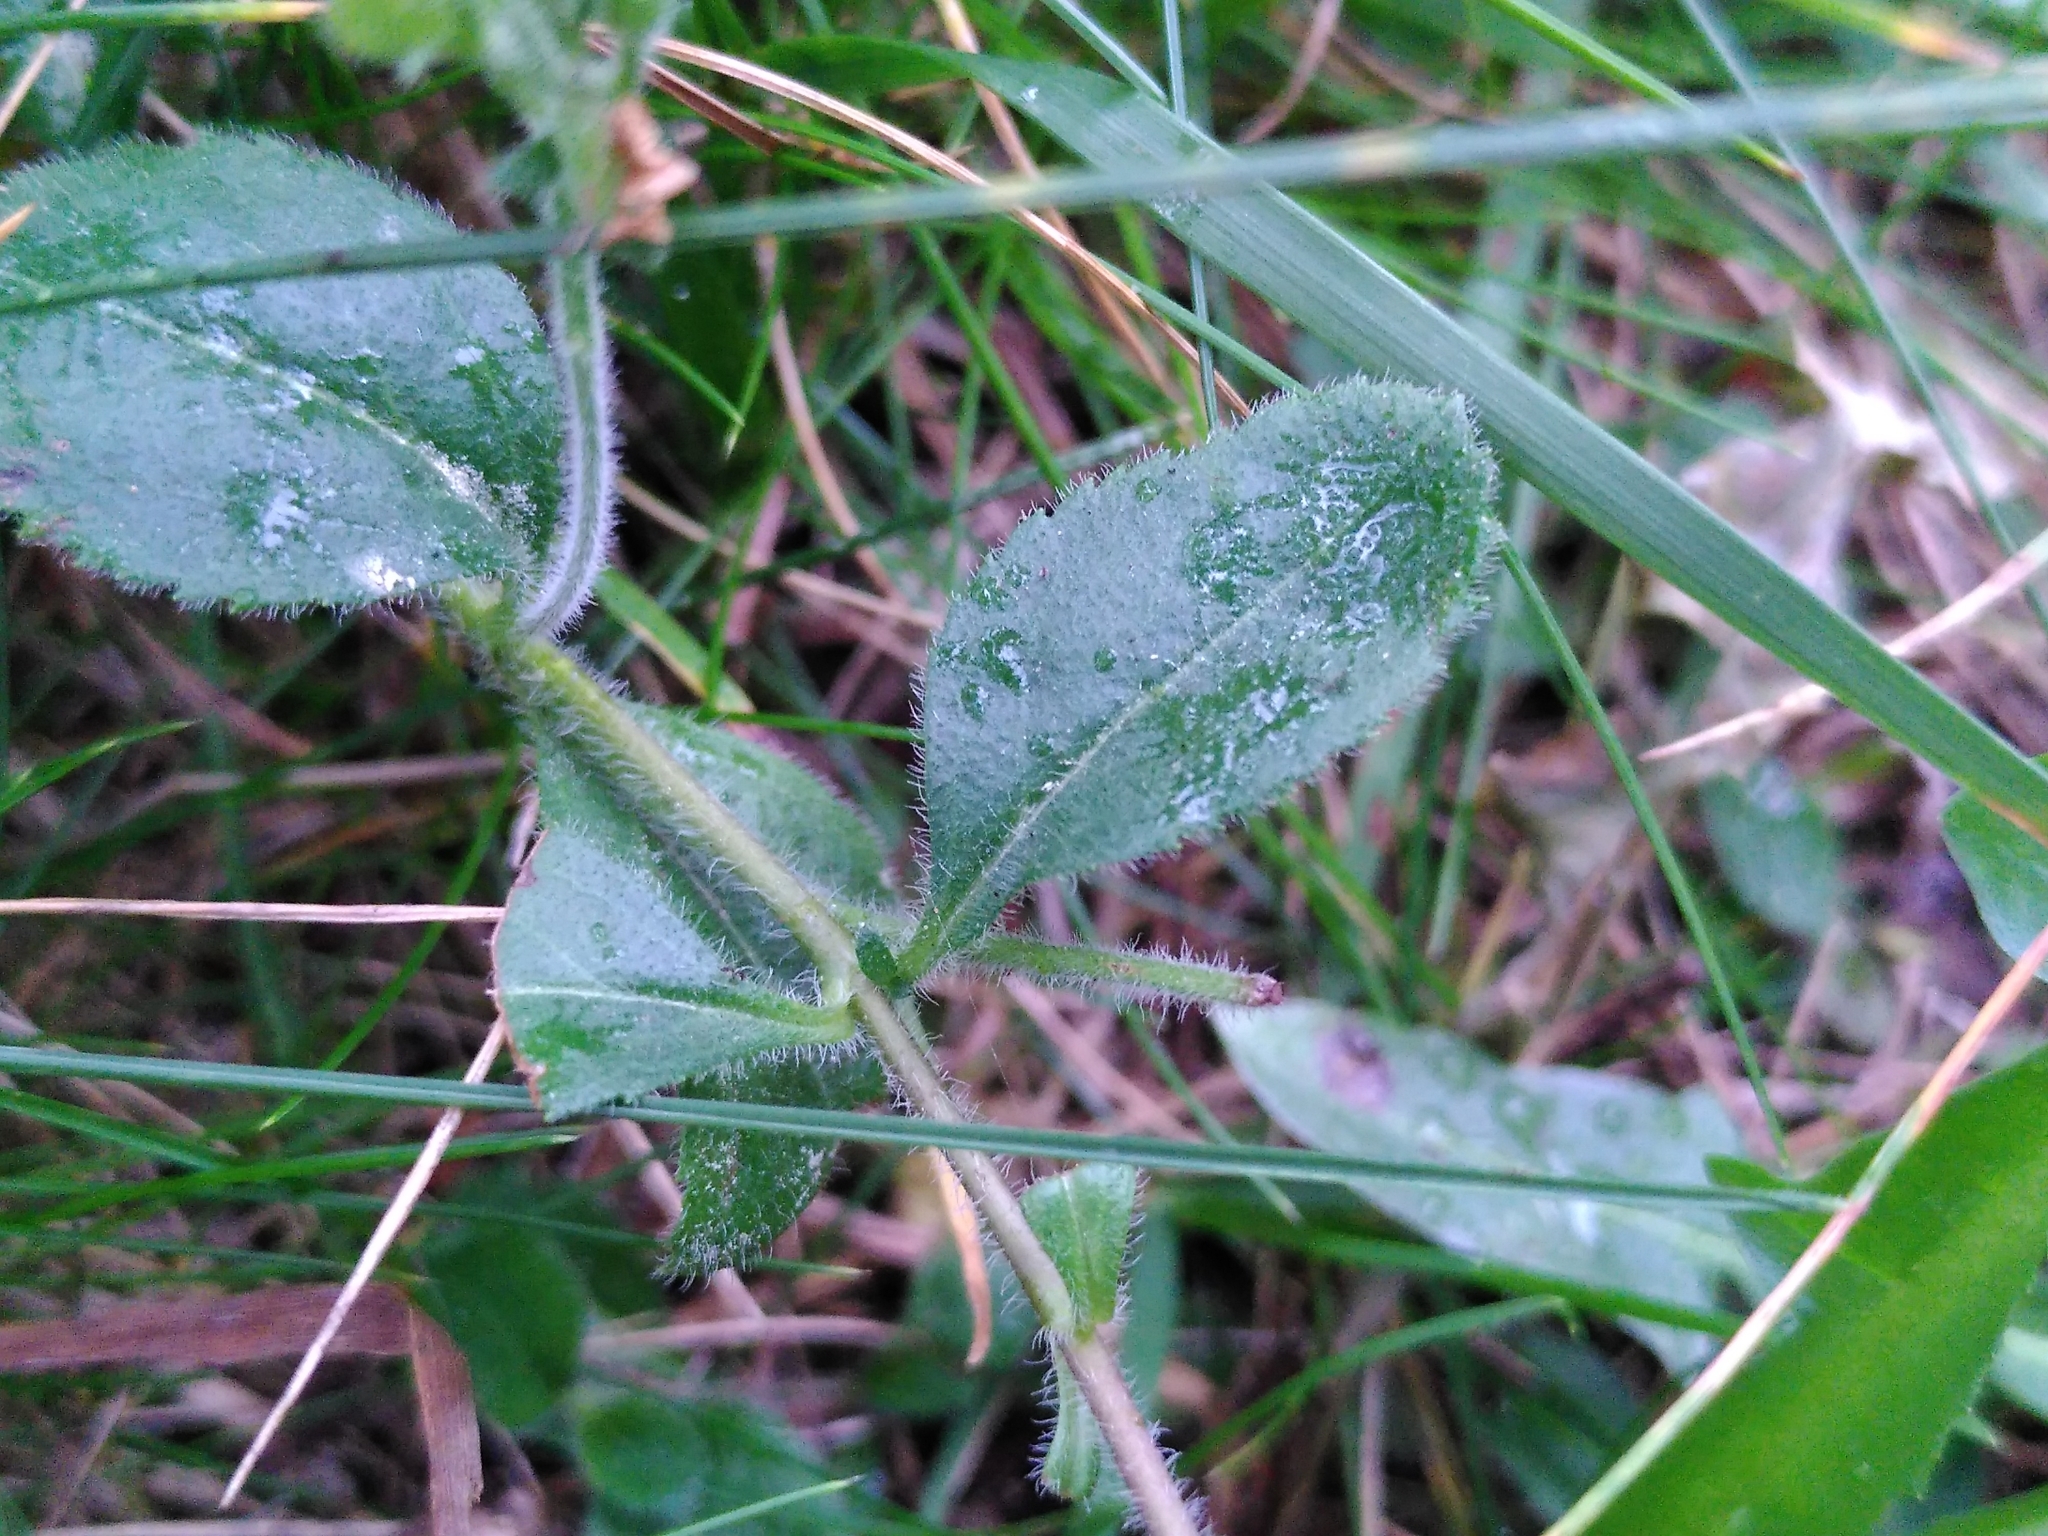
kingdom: Plantae
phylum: Tracheophyta
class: Magnoliopsida
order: Lamiales
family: Plantaginaceae
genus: Veronica
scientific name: Veronica officinalis
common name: Common speedwell
